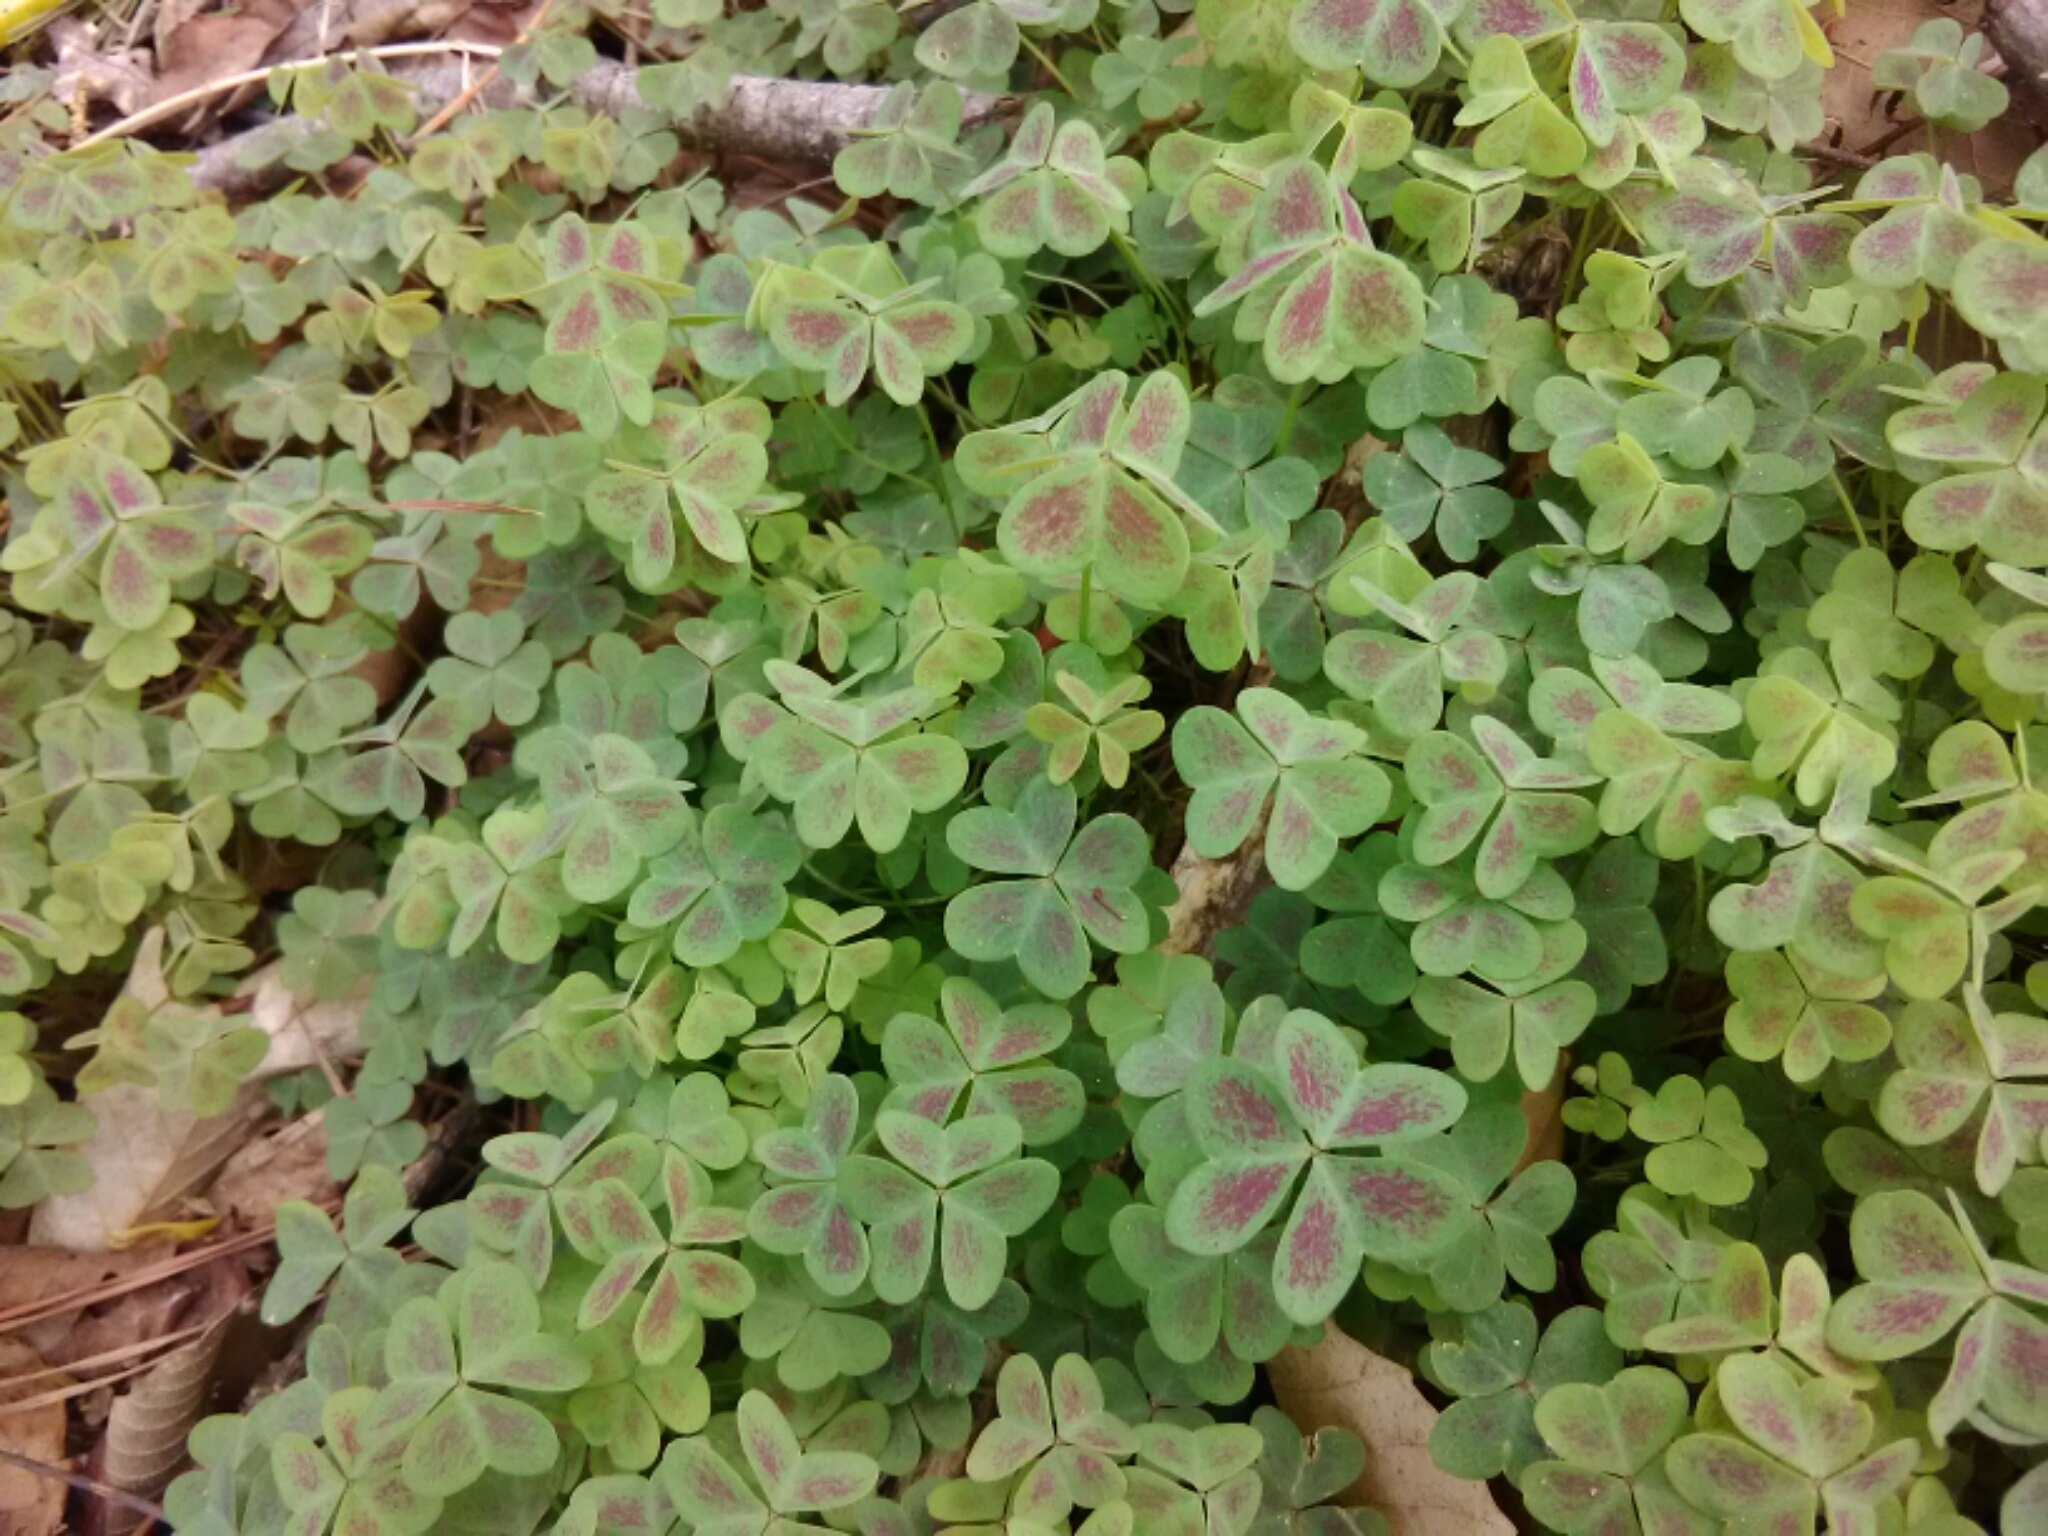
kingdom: Plantae
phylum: Tracheophyta
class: Magnoliopsida
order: Oxalidales
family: Oxalidaceae
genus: Oxalis
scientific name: Oxalis violacea
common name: Violet wood-sorrel
